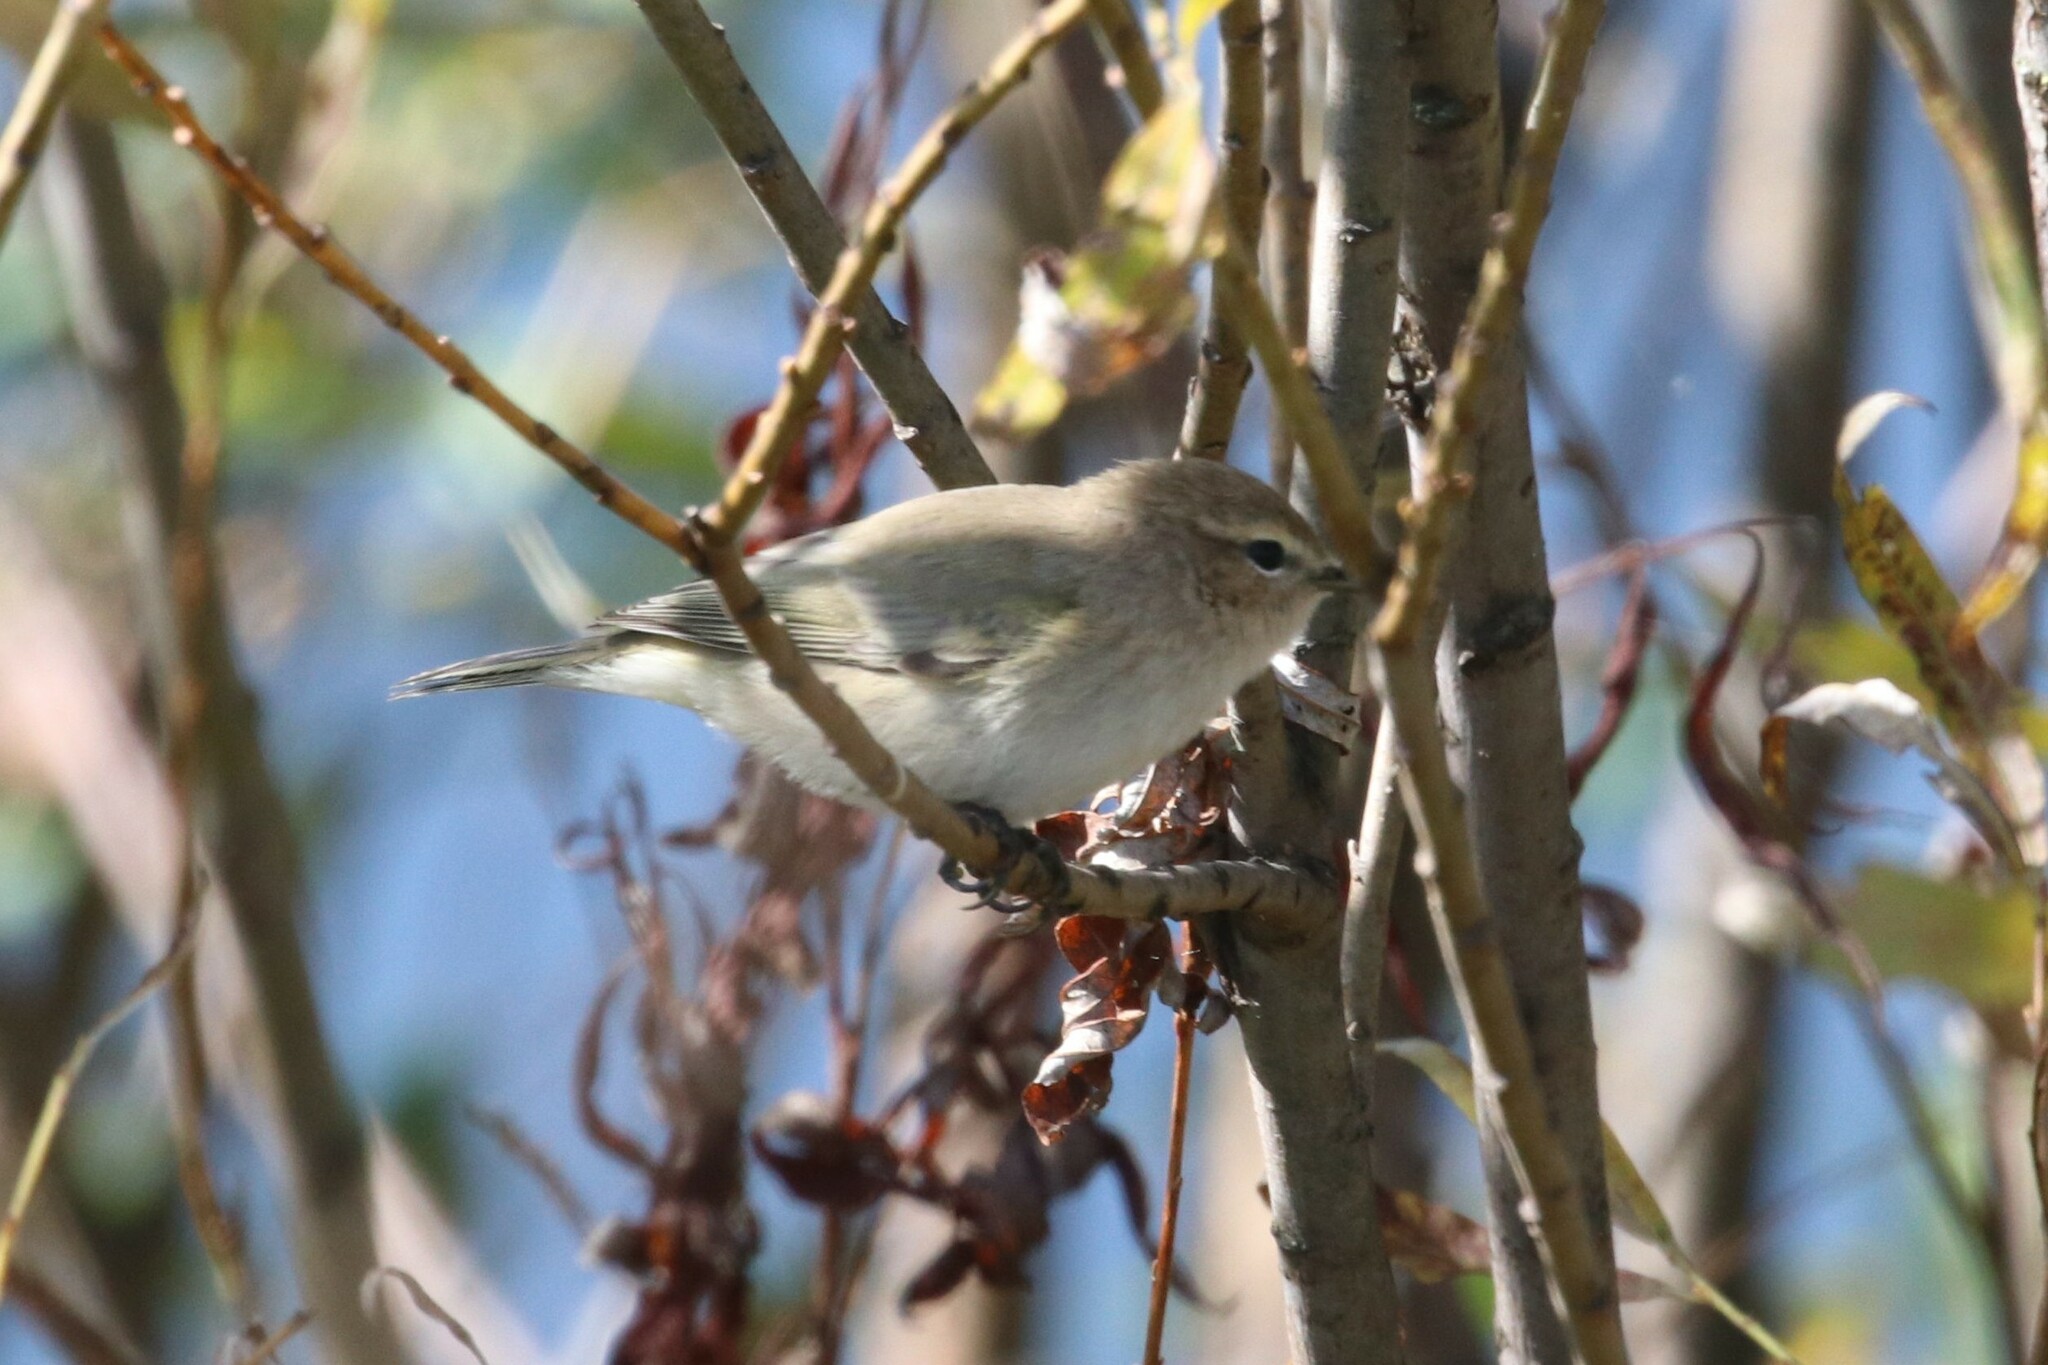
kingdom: Animalia
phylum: Chordata
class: Aves
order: Passeriformes
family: Phylloscopidae
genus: Phylloscopus
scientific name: Phylloscopus collybita
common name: Common chiffchaff
